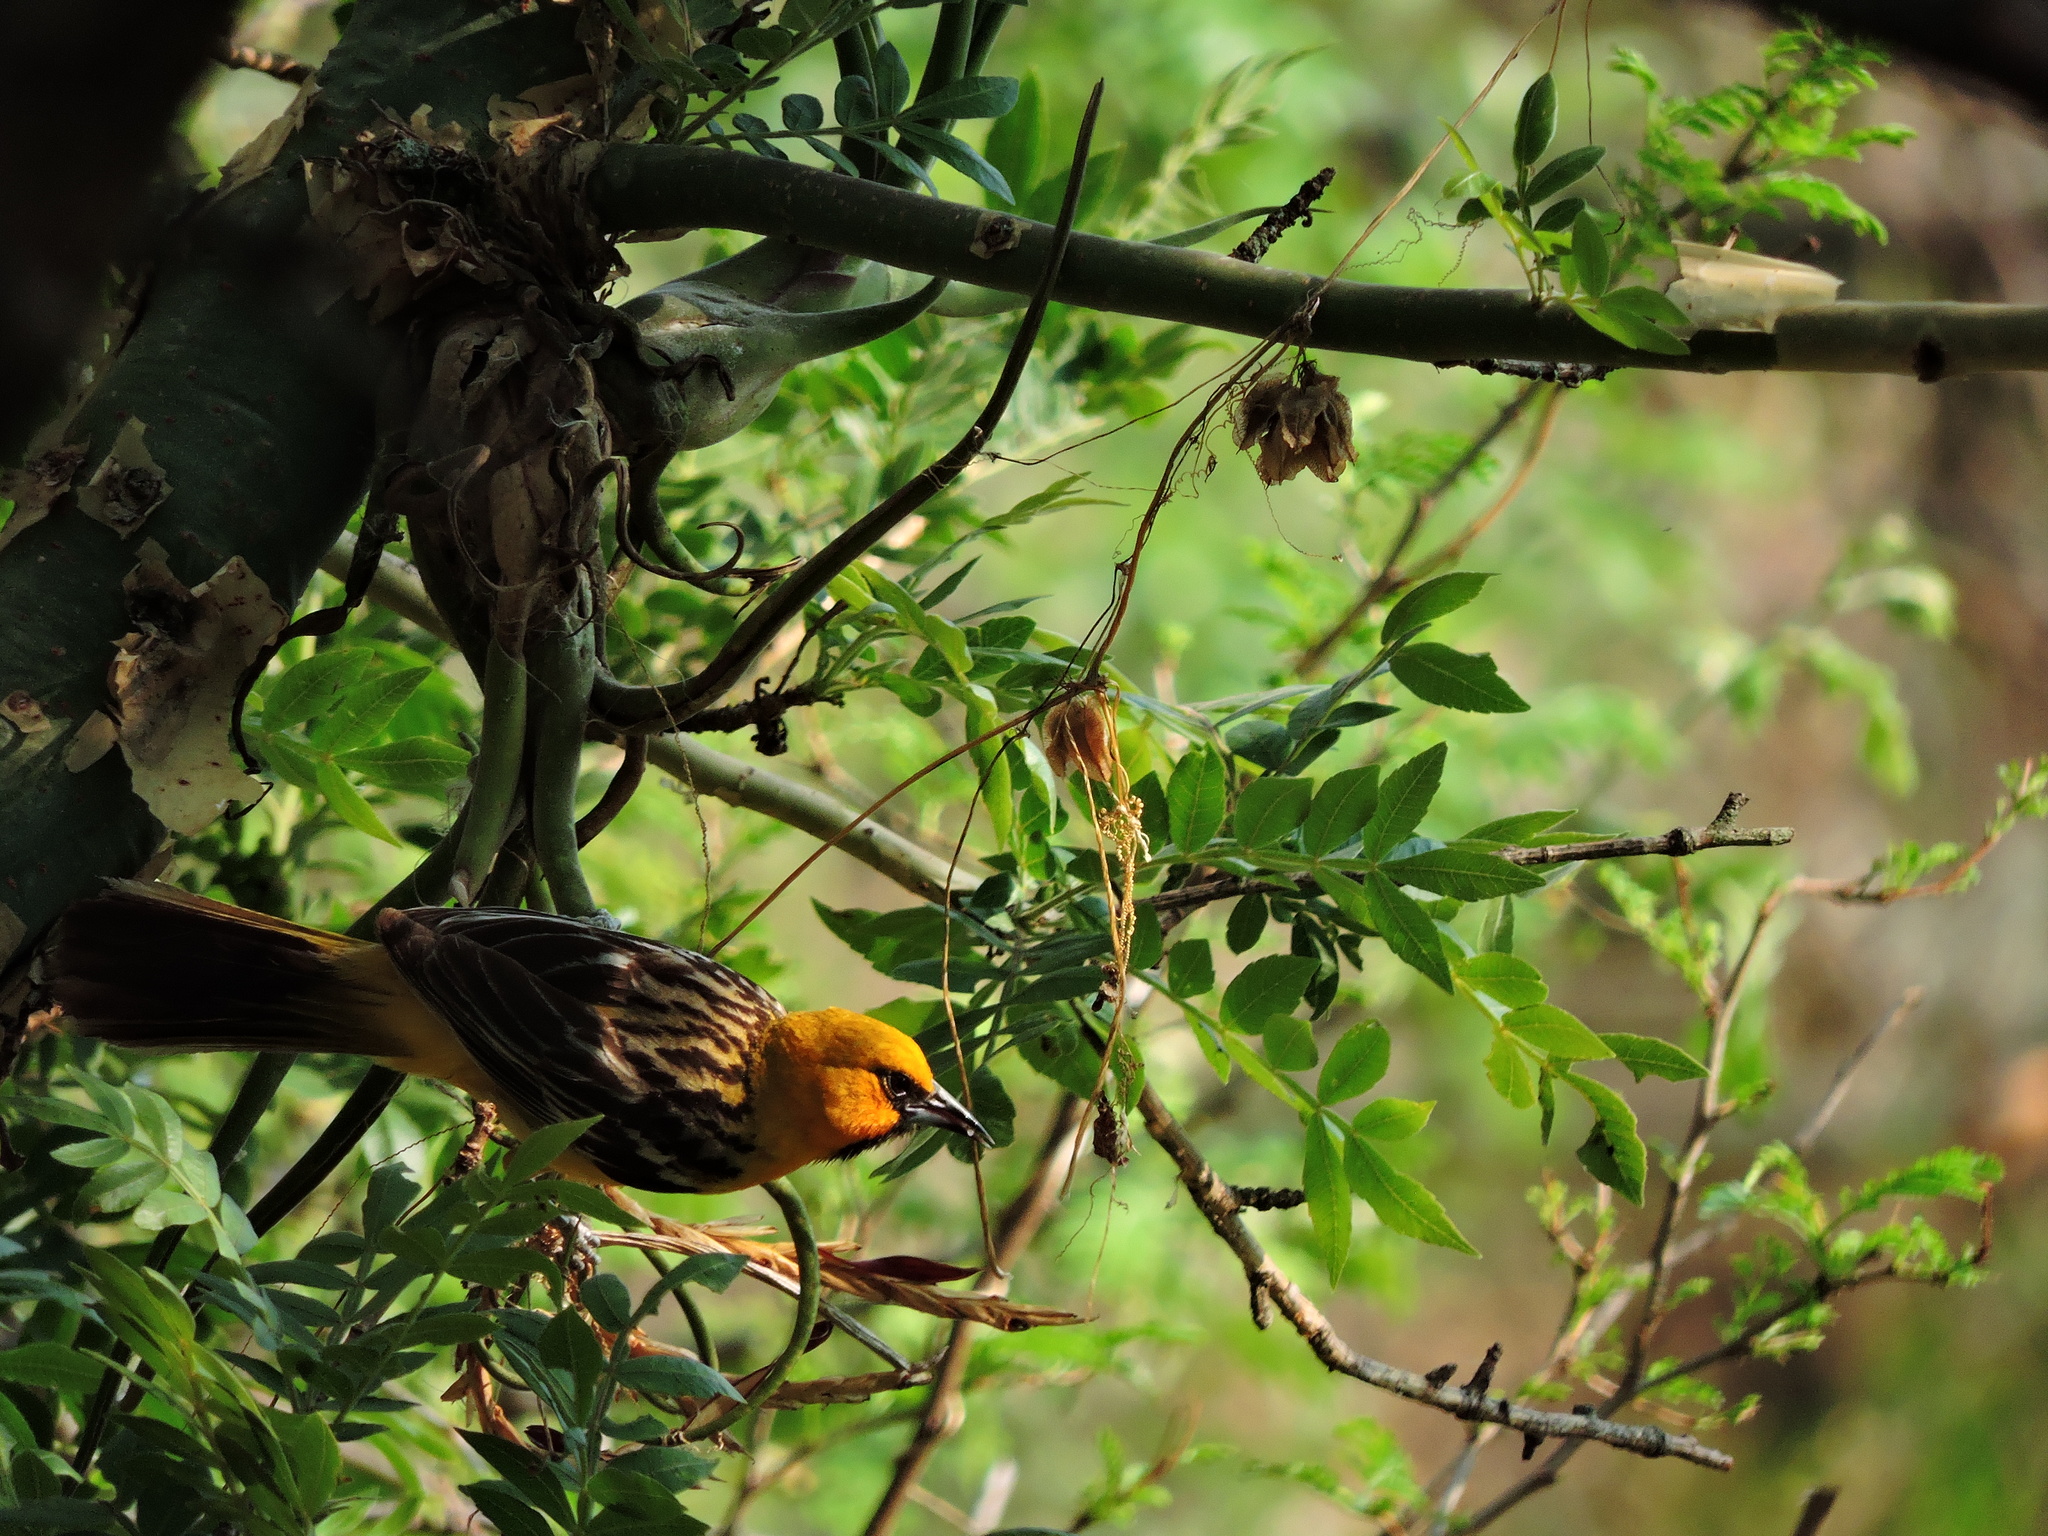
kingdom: Animalia
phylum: Chordata
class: Aves
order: Passeriformes
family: Icteridae
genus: Icterus
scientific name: Icterus pustulatus
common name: Streak-backed oriole
